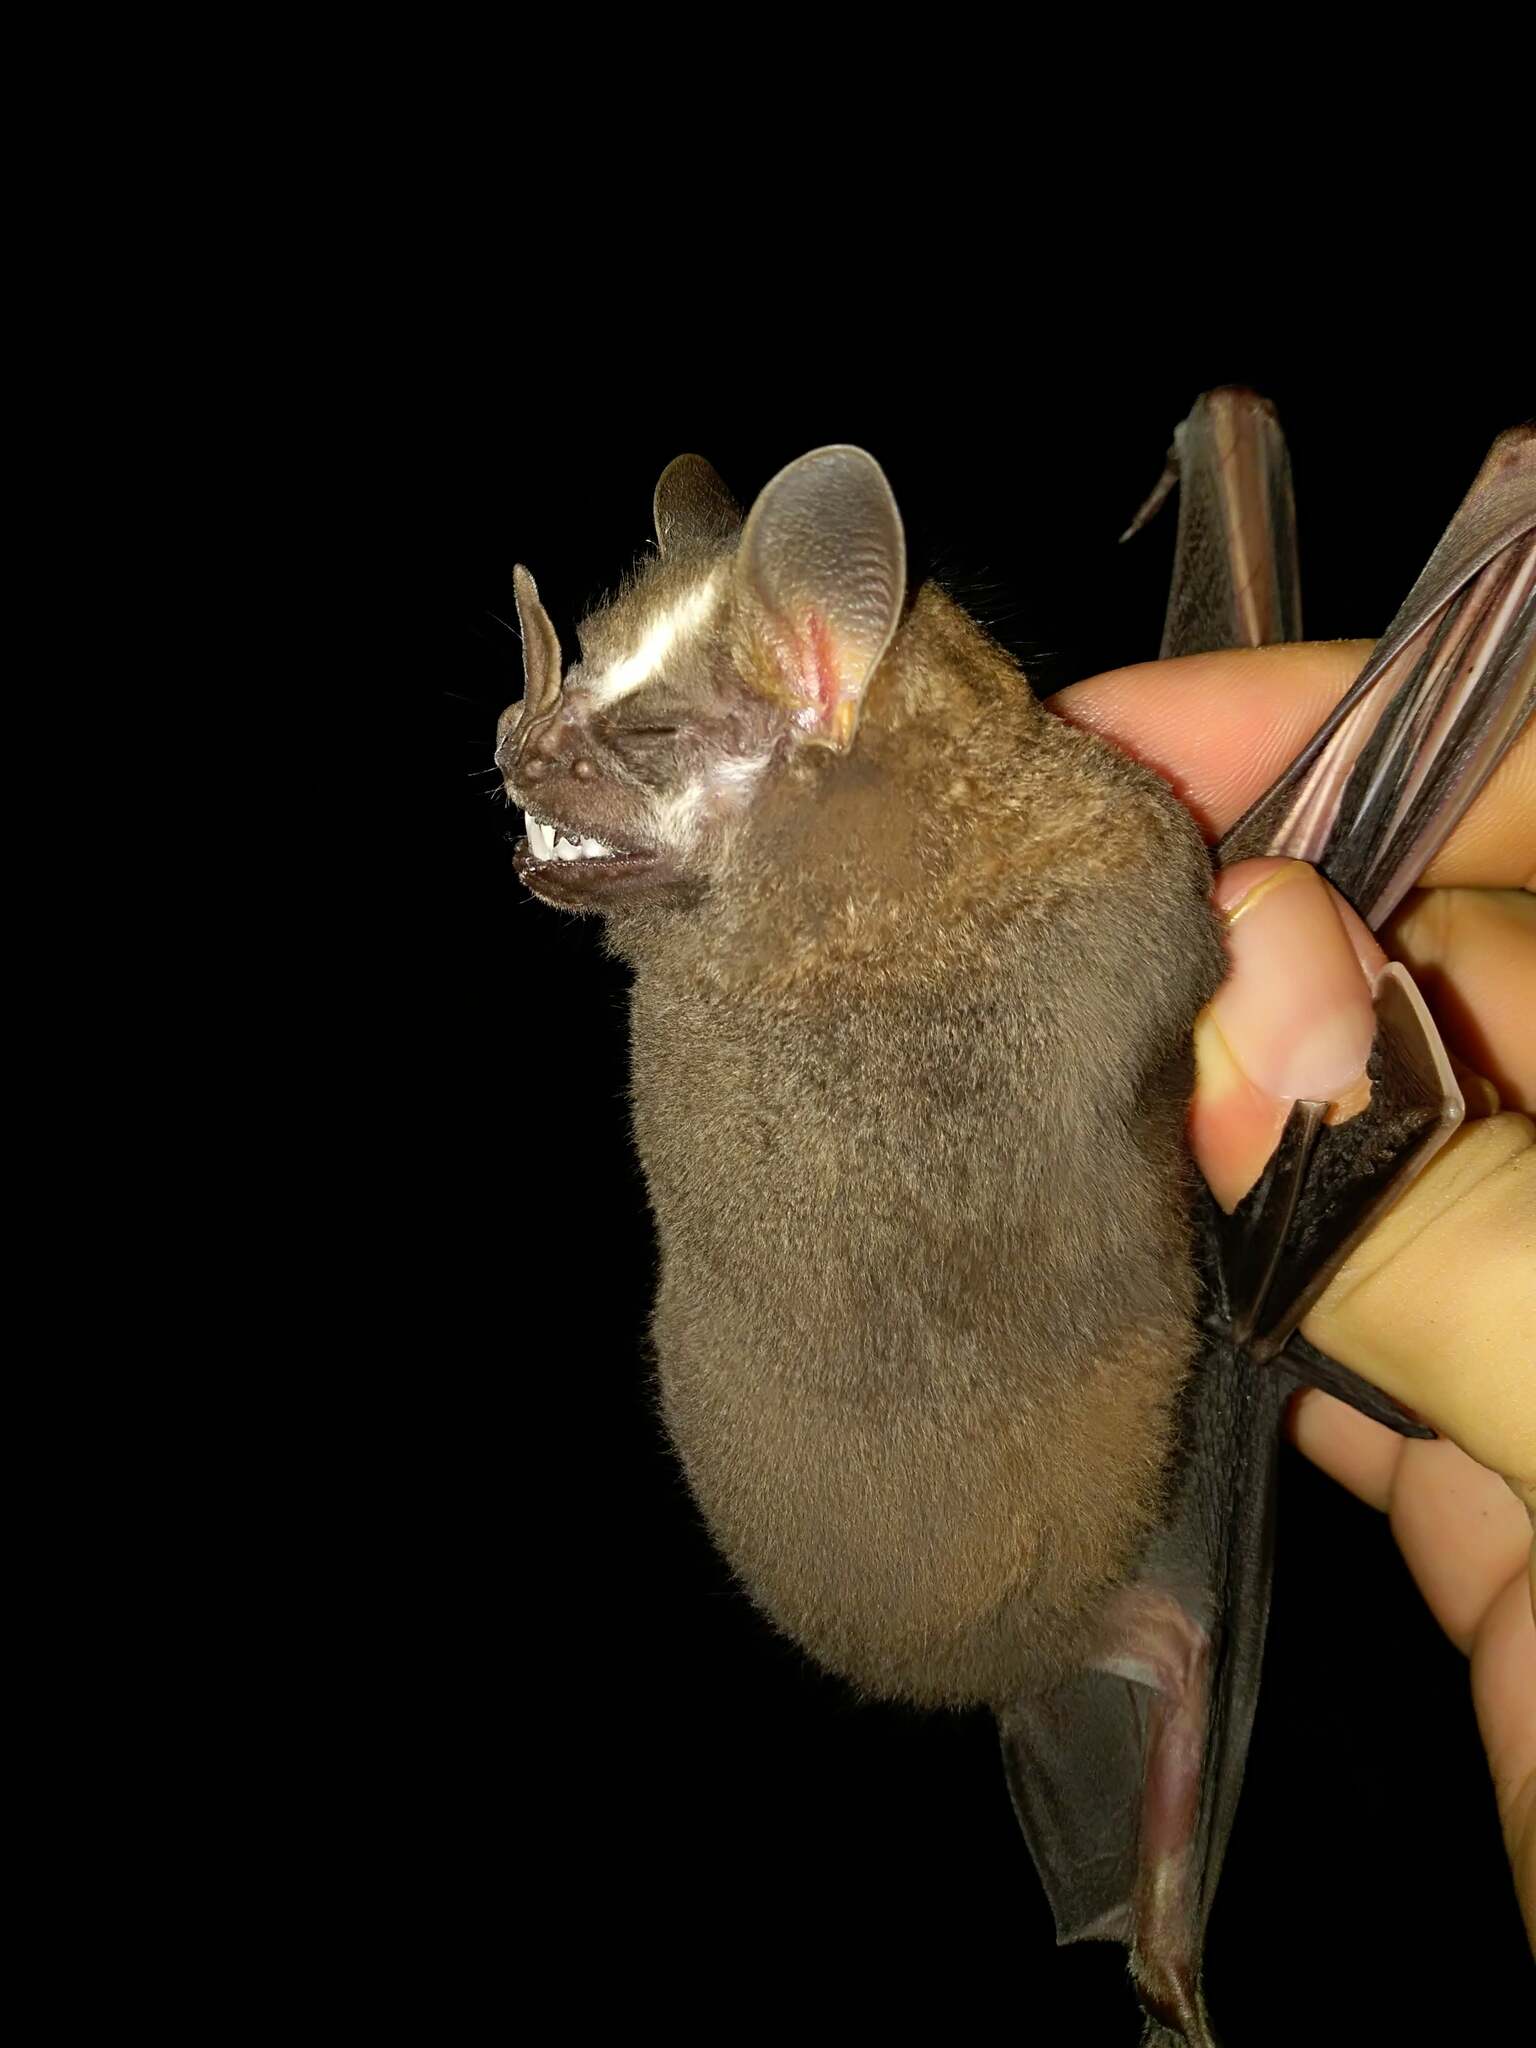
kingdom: Animalia
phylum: Chordata
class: Mammalia
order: Chiroptera
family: Phyllostomidae
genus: Artibeus
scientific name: Artibeus lituratus
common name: Great fruit-eating bat
